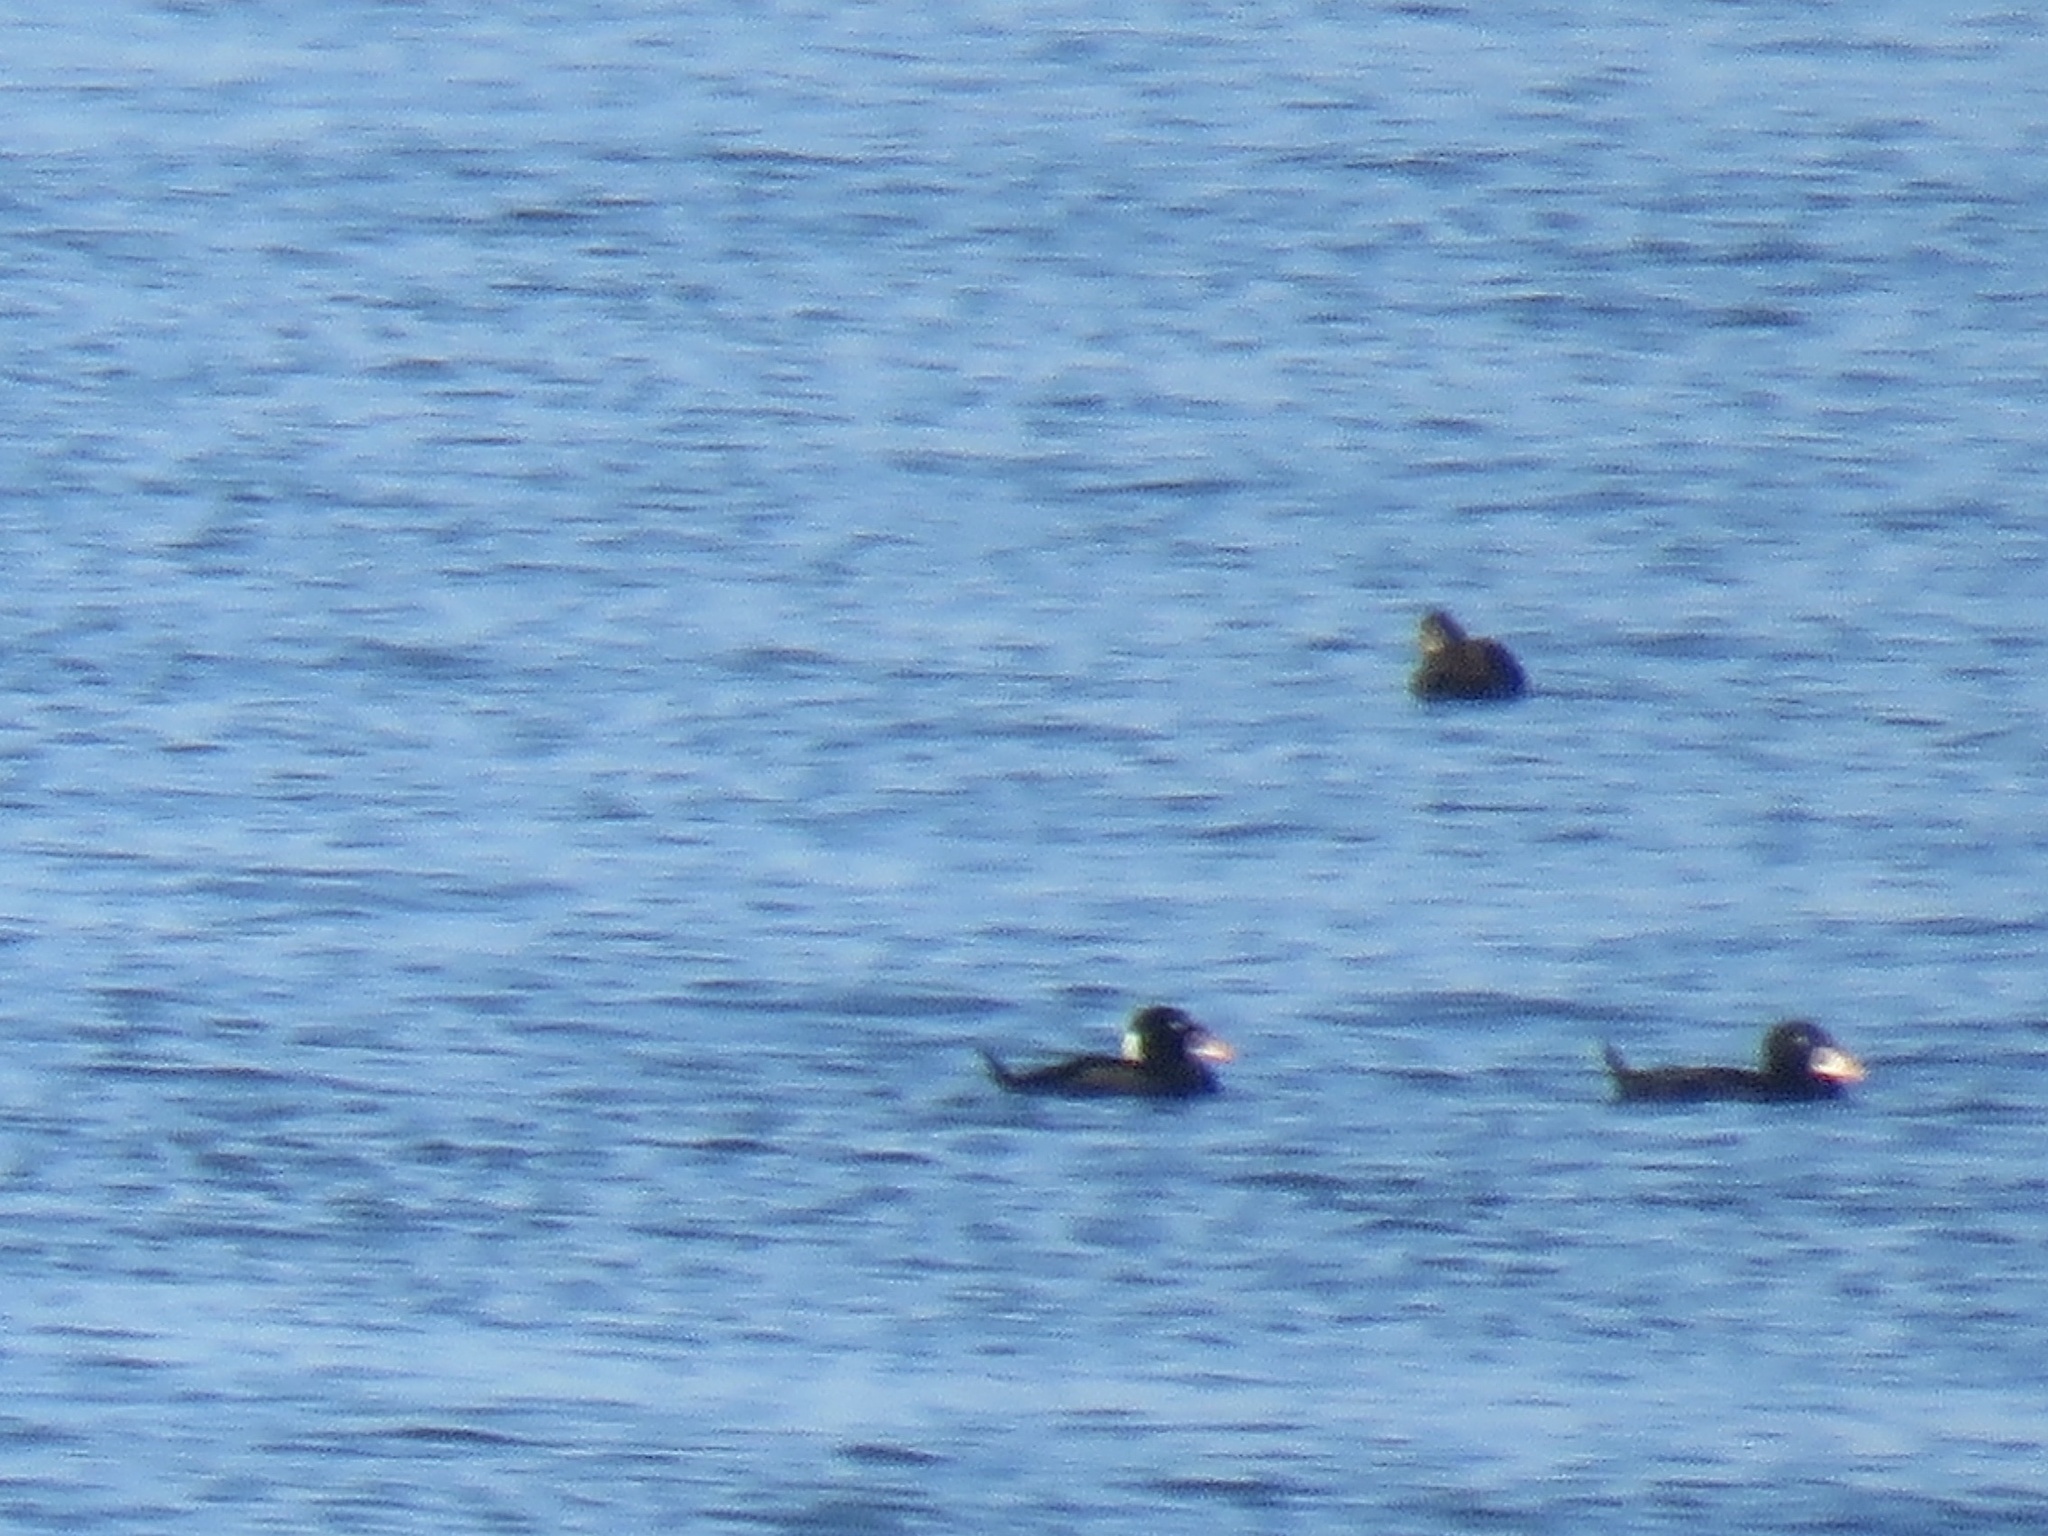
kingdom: Animalia
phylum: Chordata
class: Aves
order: Anseriformes
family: Anatidae
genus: Melanitta
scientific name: Melanitta perspicillata
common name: Surf scoter
